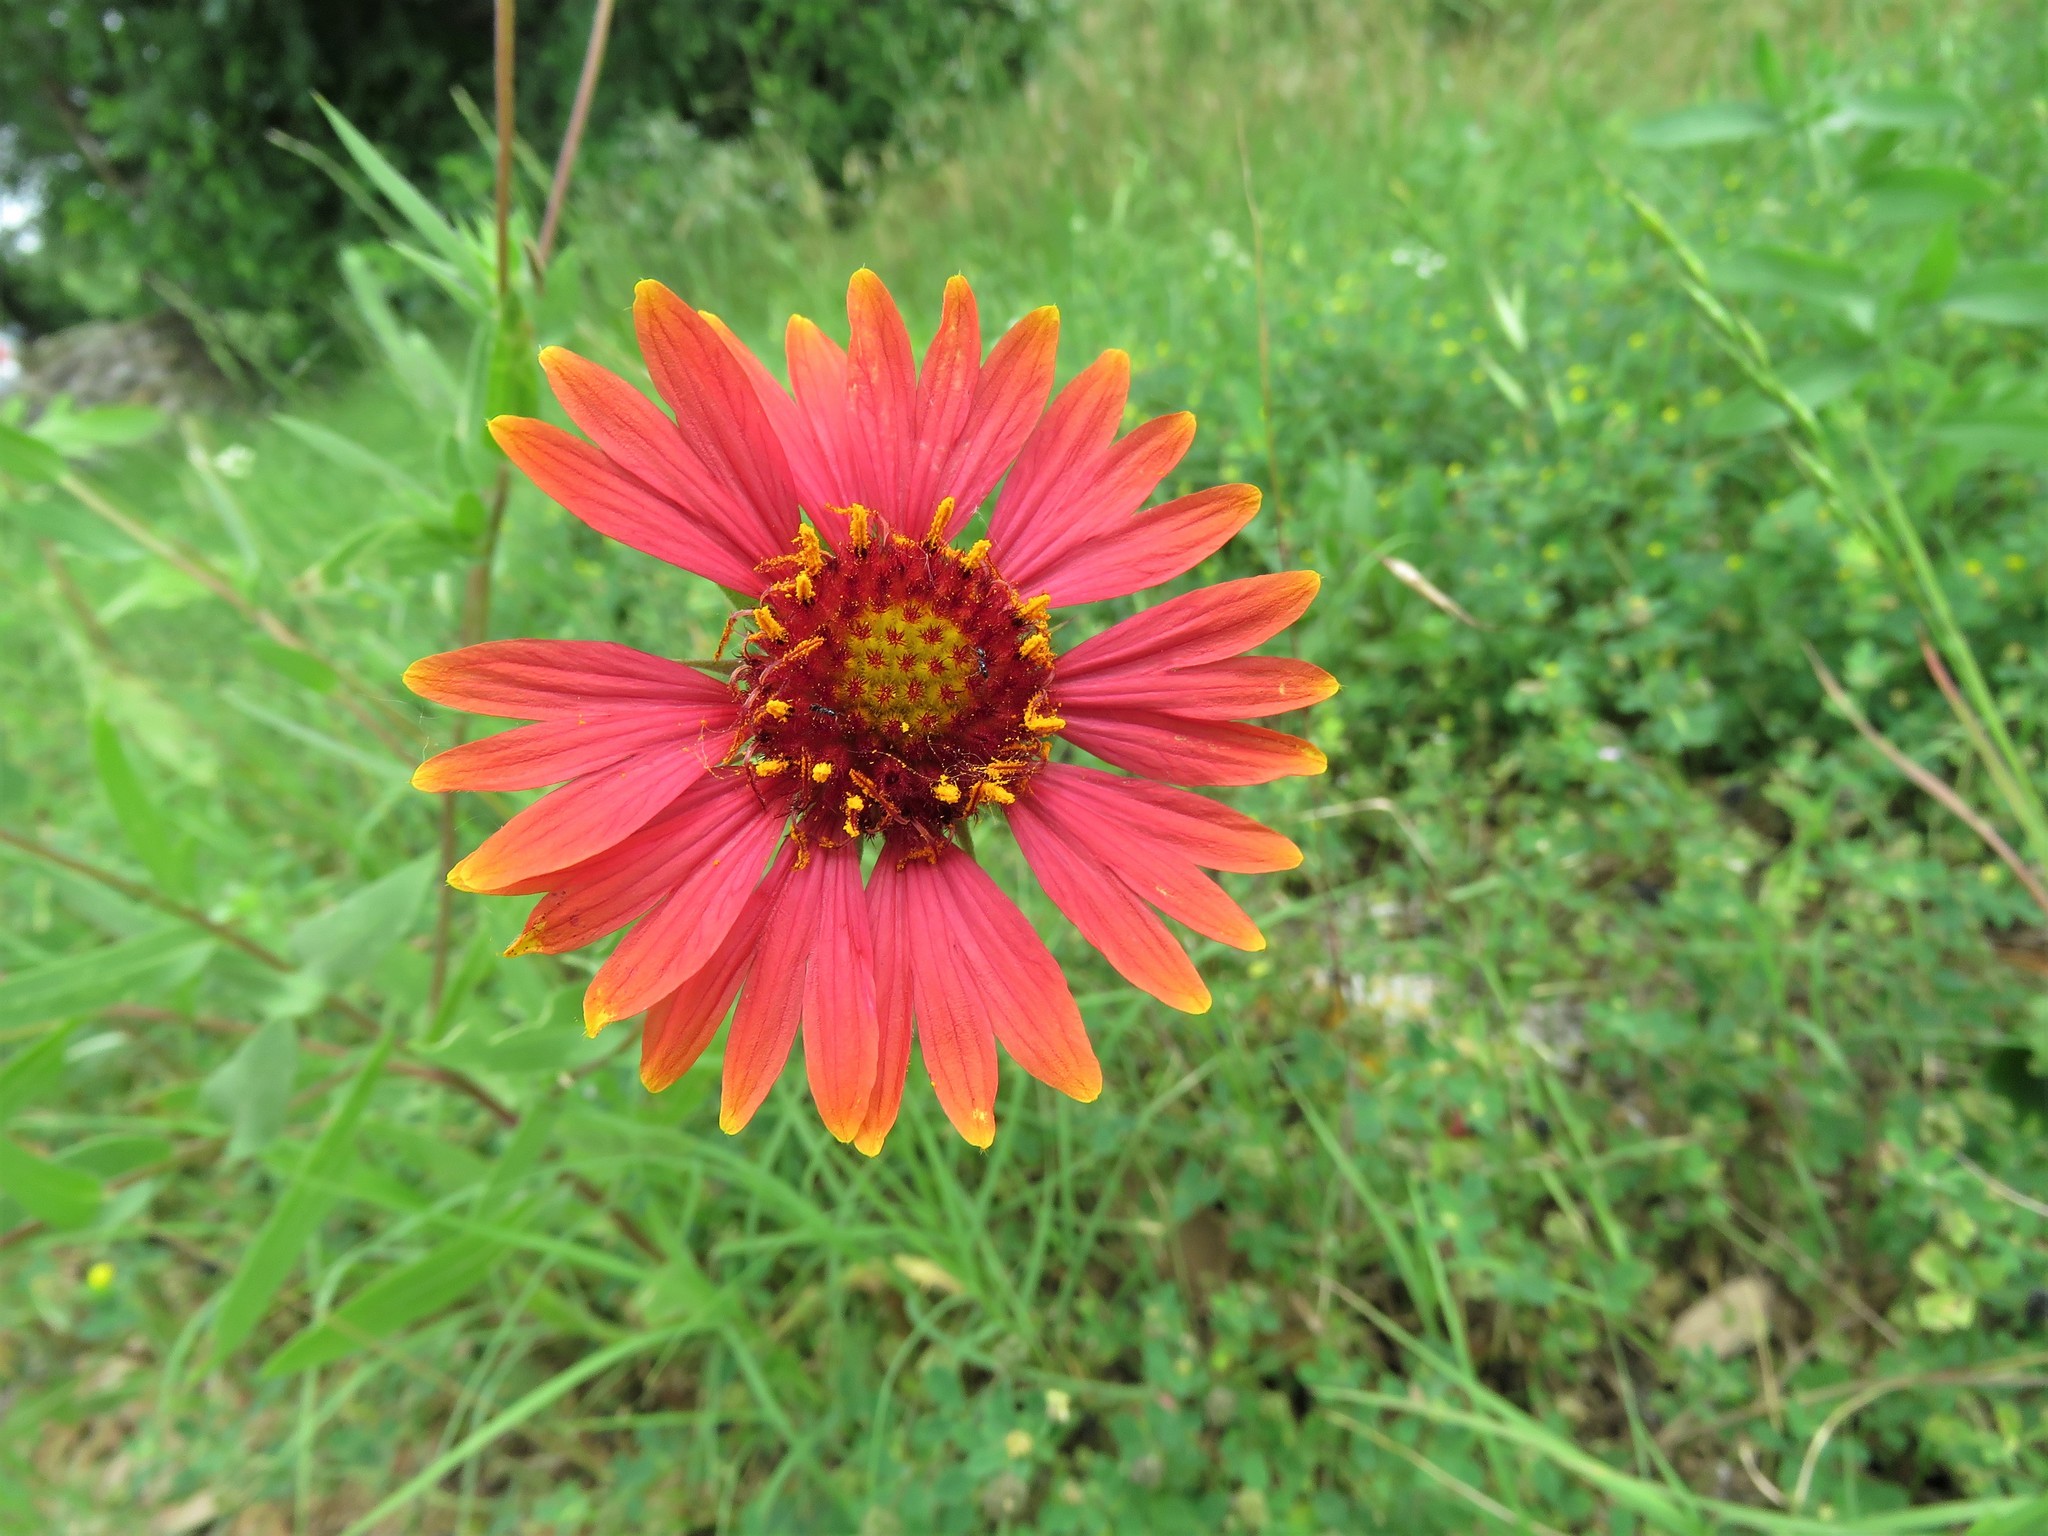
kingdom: Plantae
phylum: Tracheophyta
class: Magnoliopsida
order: Asterales
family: Asteraceae
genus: Gaillardia
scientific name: Gaillardia grandiflora
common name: Blanket flower
